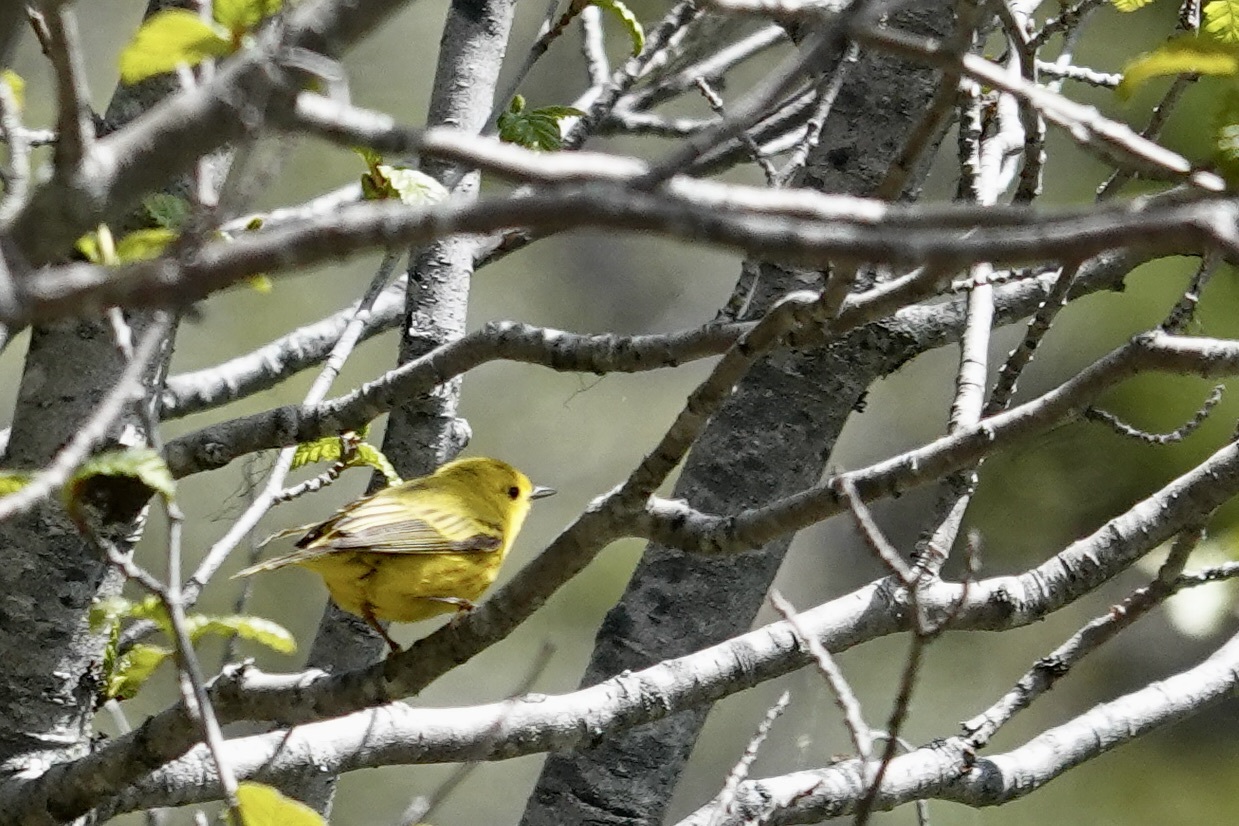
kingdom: Animalia
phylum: Chordata
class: Aves
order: Passeriformes
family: Parulidae
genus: Setophaga
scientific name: Setophaga petechia
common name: Yellow warbler
